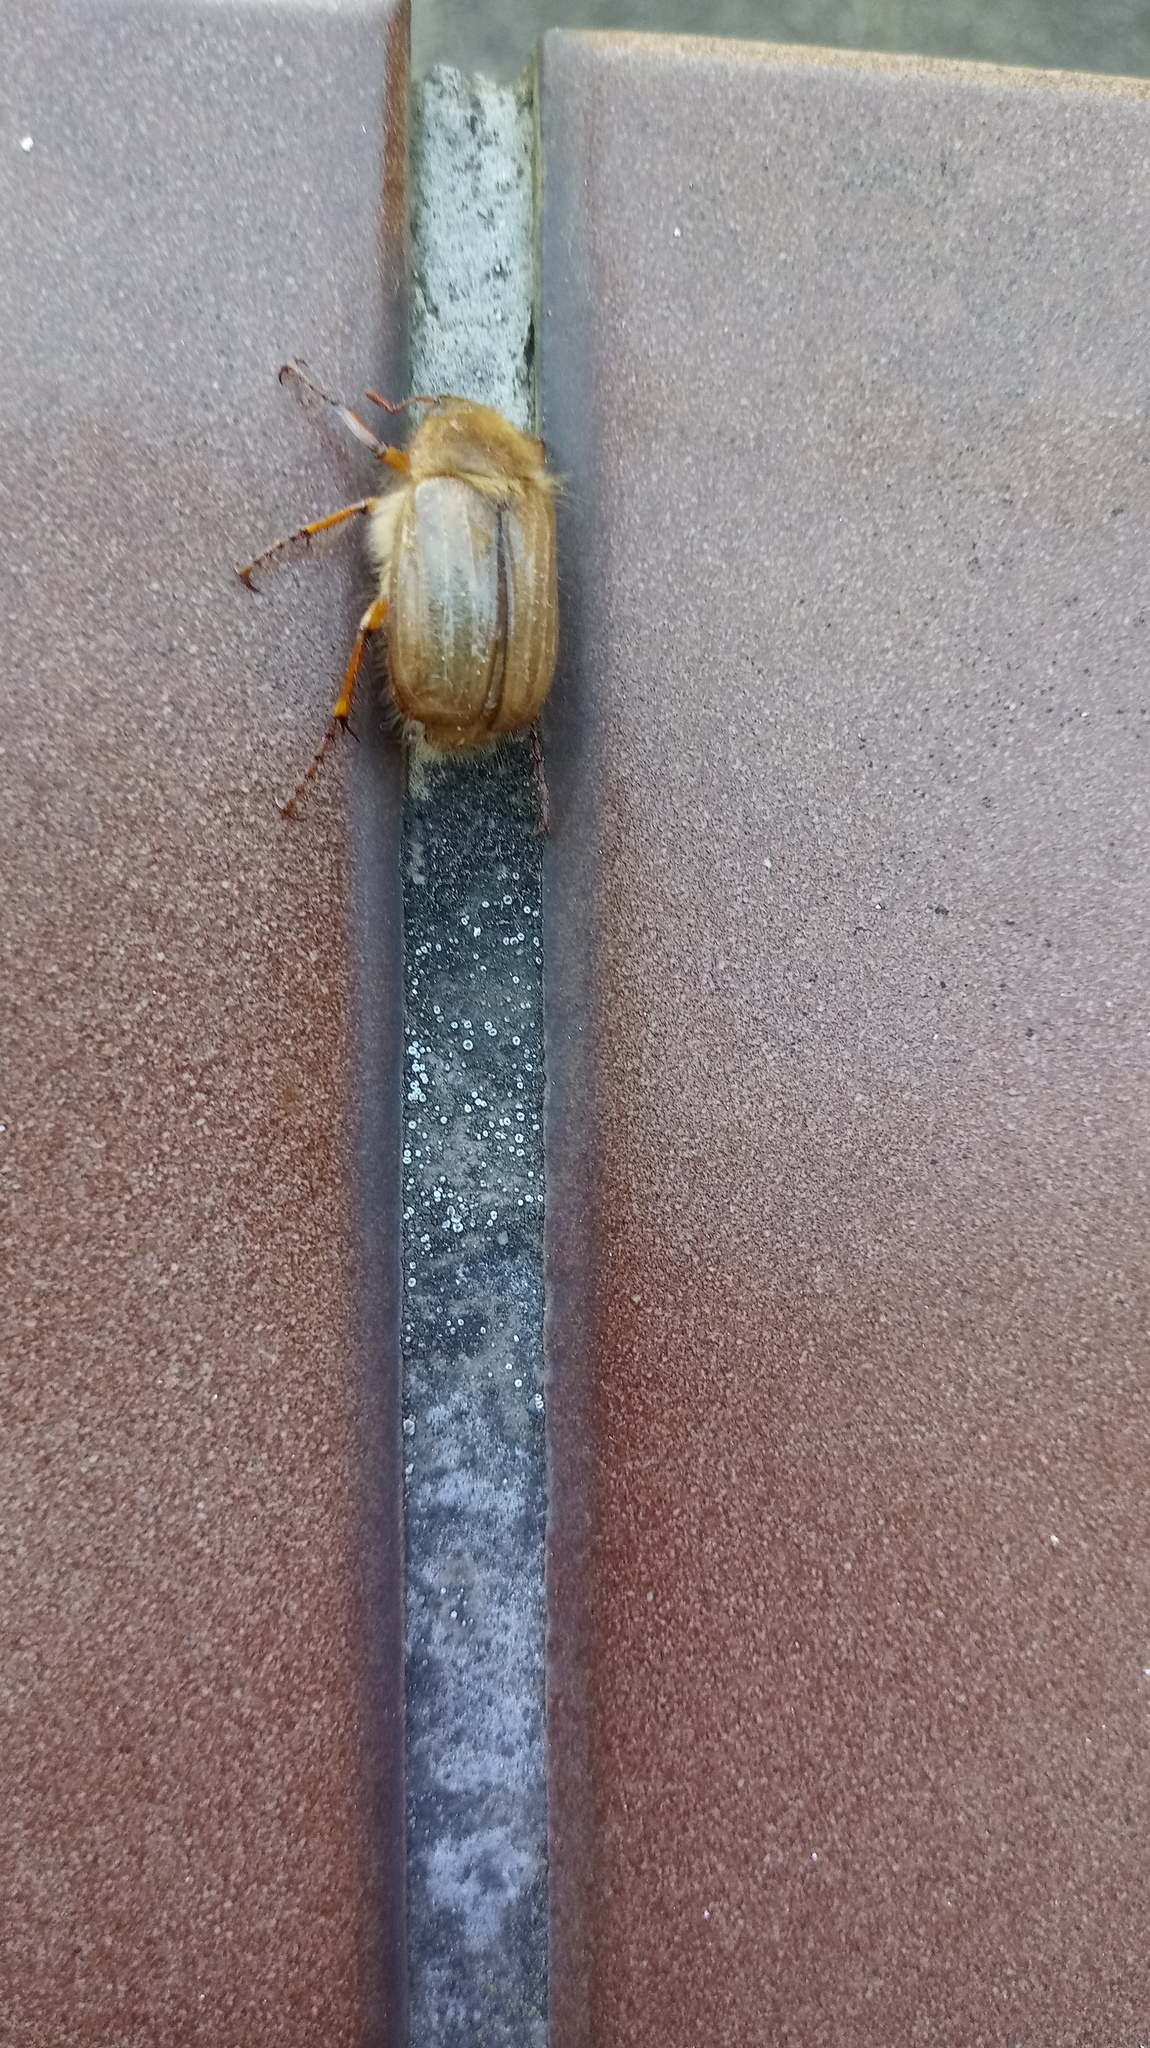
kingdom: Animalia
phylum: Arthropoda
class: Insecta
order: Coleoptera
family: Scarabaeidae
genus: Amphimallon
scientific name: Amphimallon solstitiale
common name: Summer chafer
